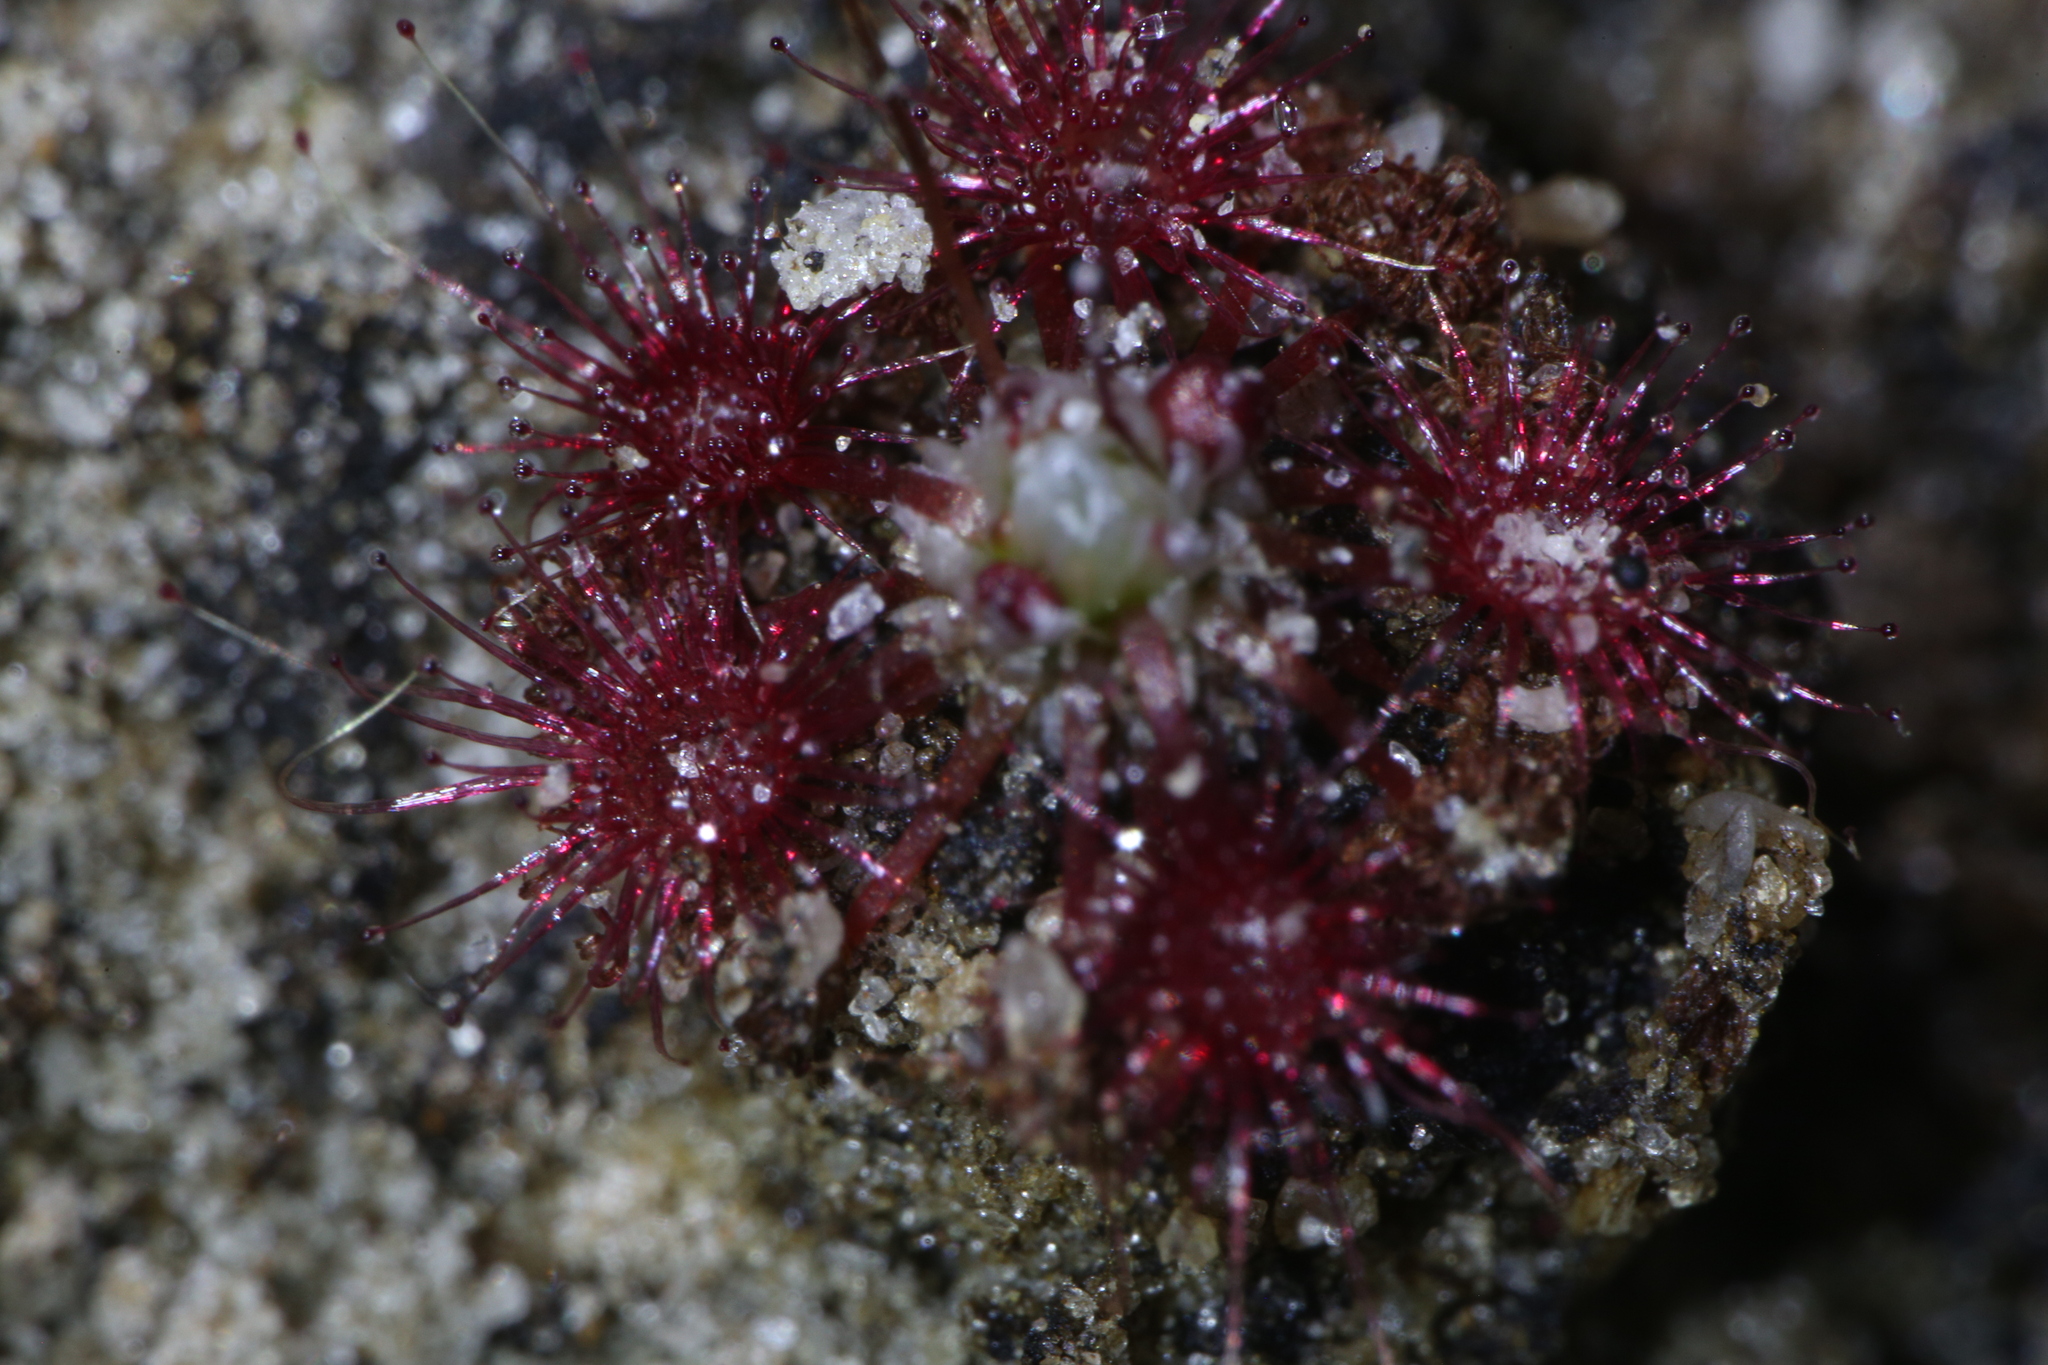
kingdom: Plantae
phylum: Tracheophyta
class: Magnoliopsida
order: Caryophyllales
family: Droseraceae
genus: Drosera
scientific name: Drosera occidentalis
